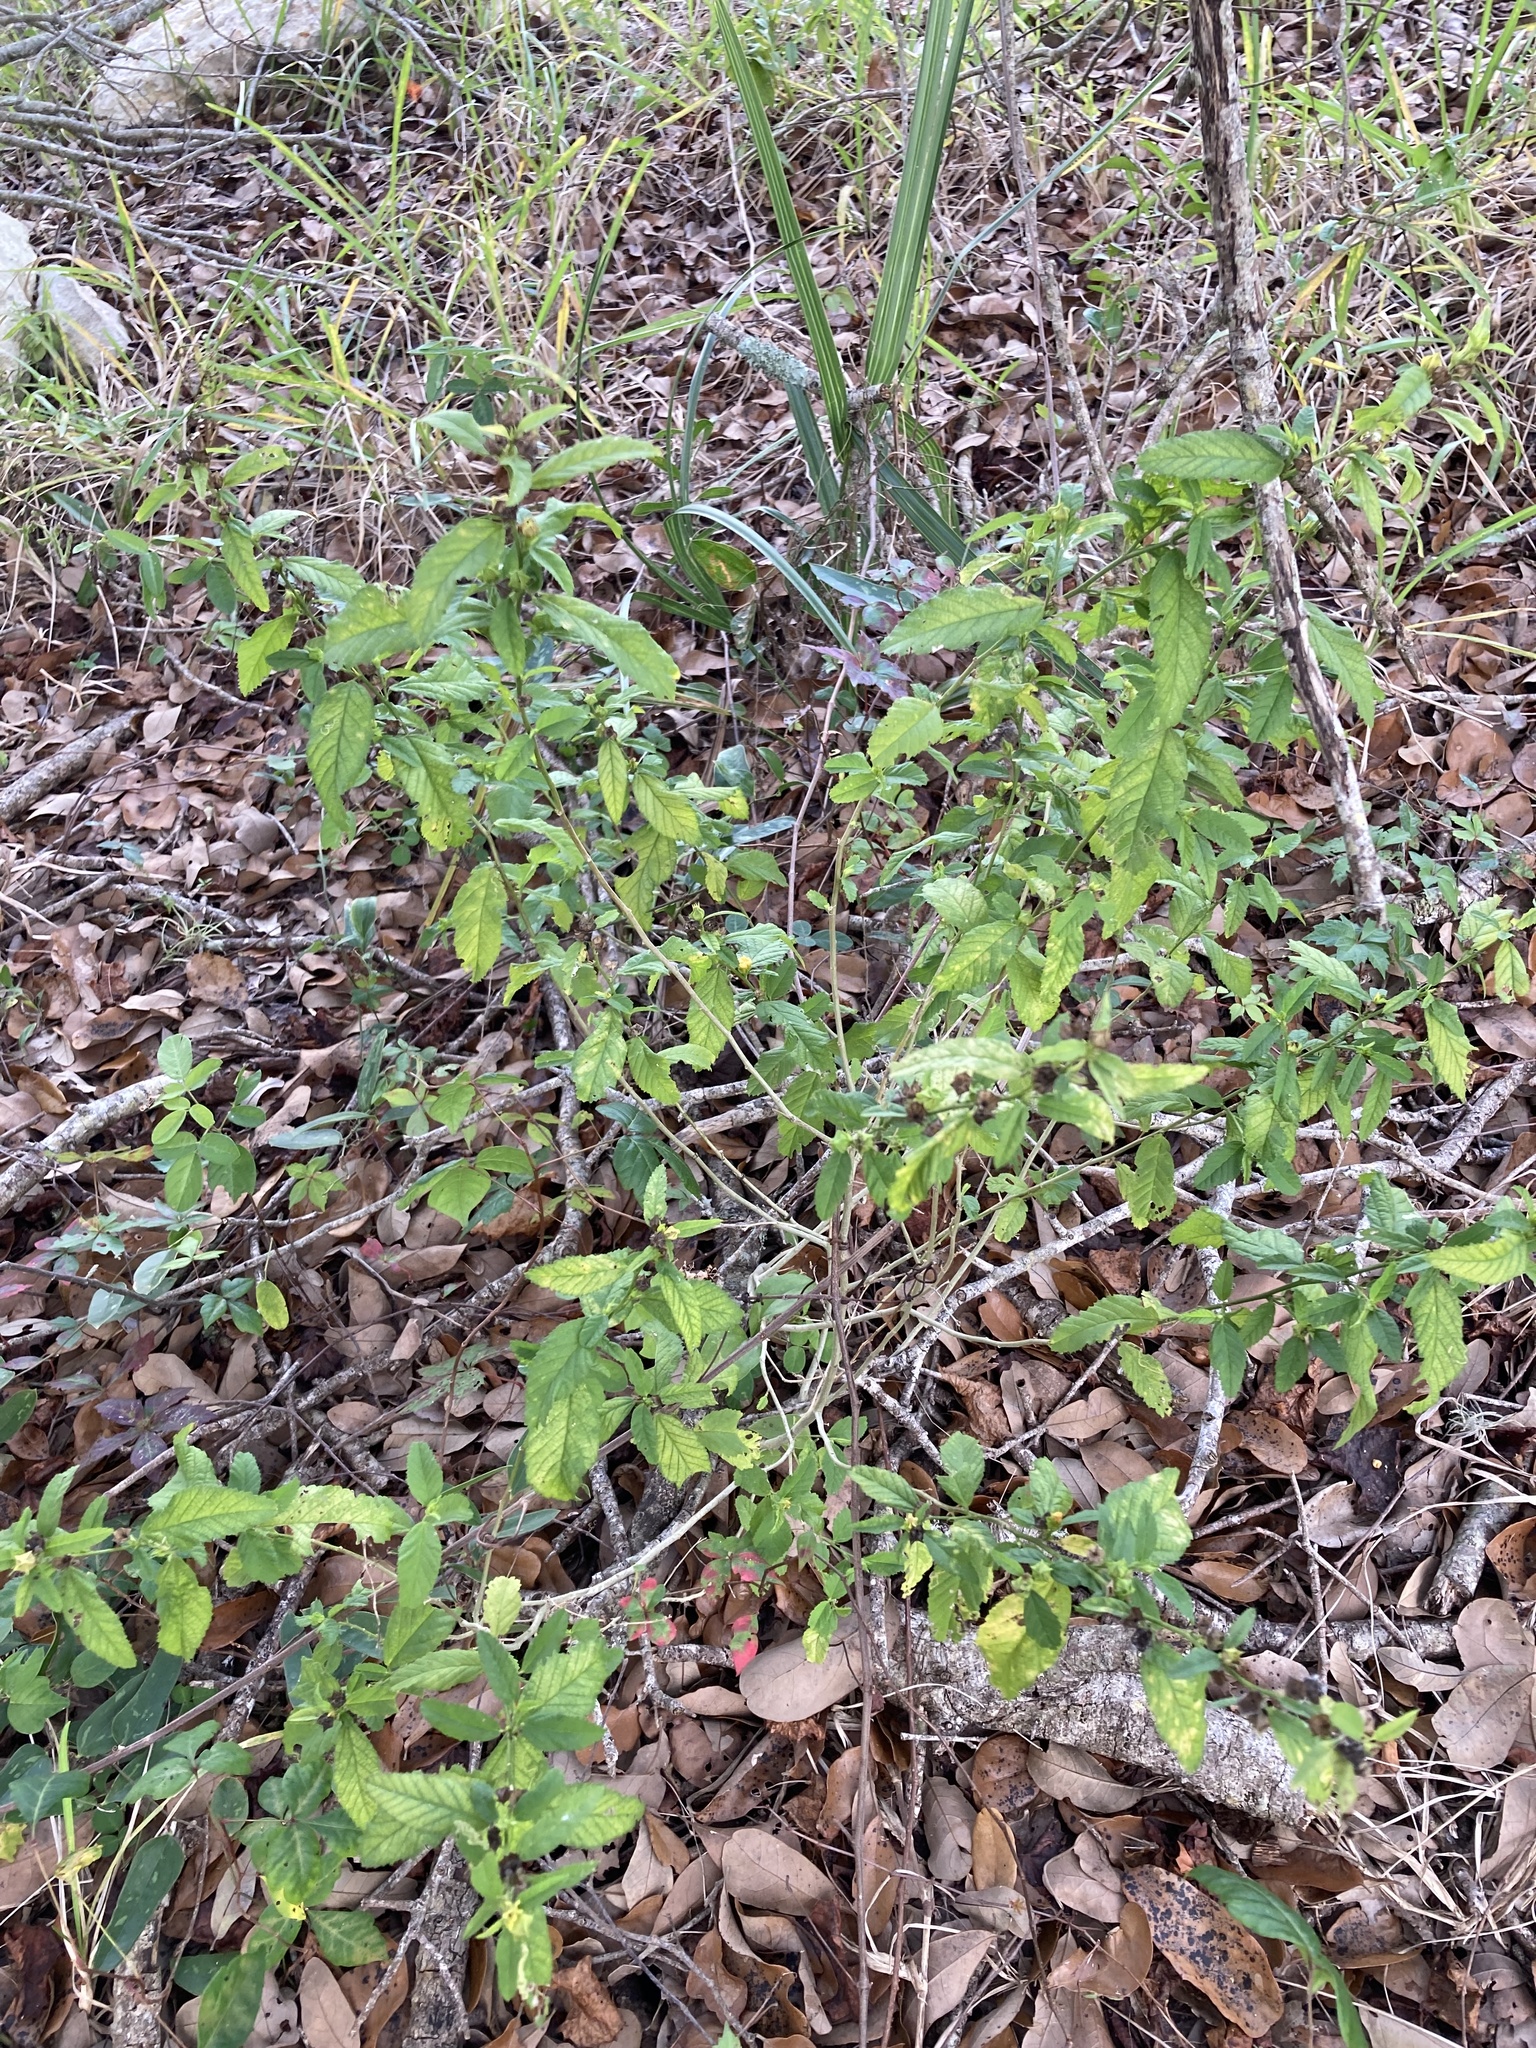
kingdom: Plantae
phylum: Tracheophyta
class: Magnoliopsida
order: Malvales
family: Malvaceae
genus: Sida
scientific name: Sida ulmifolia
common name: Broom weed
